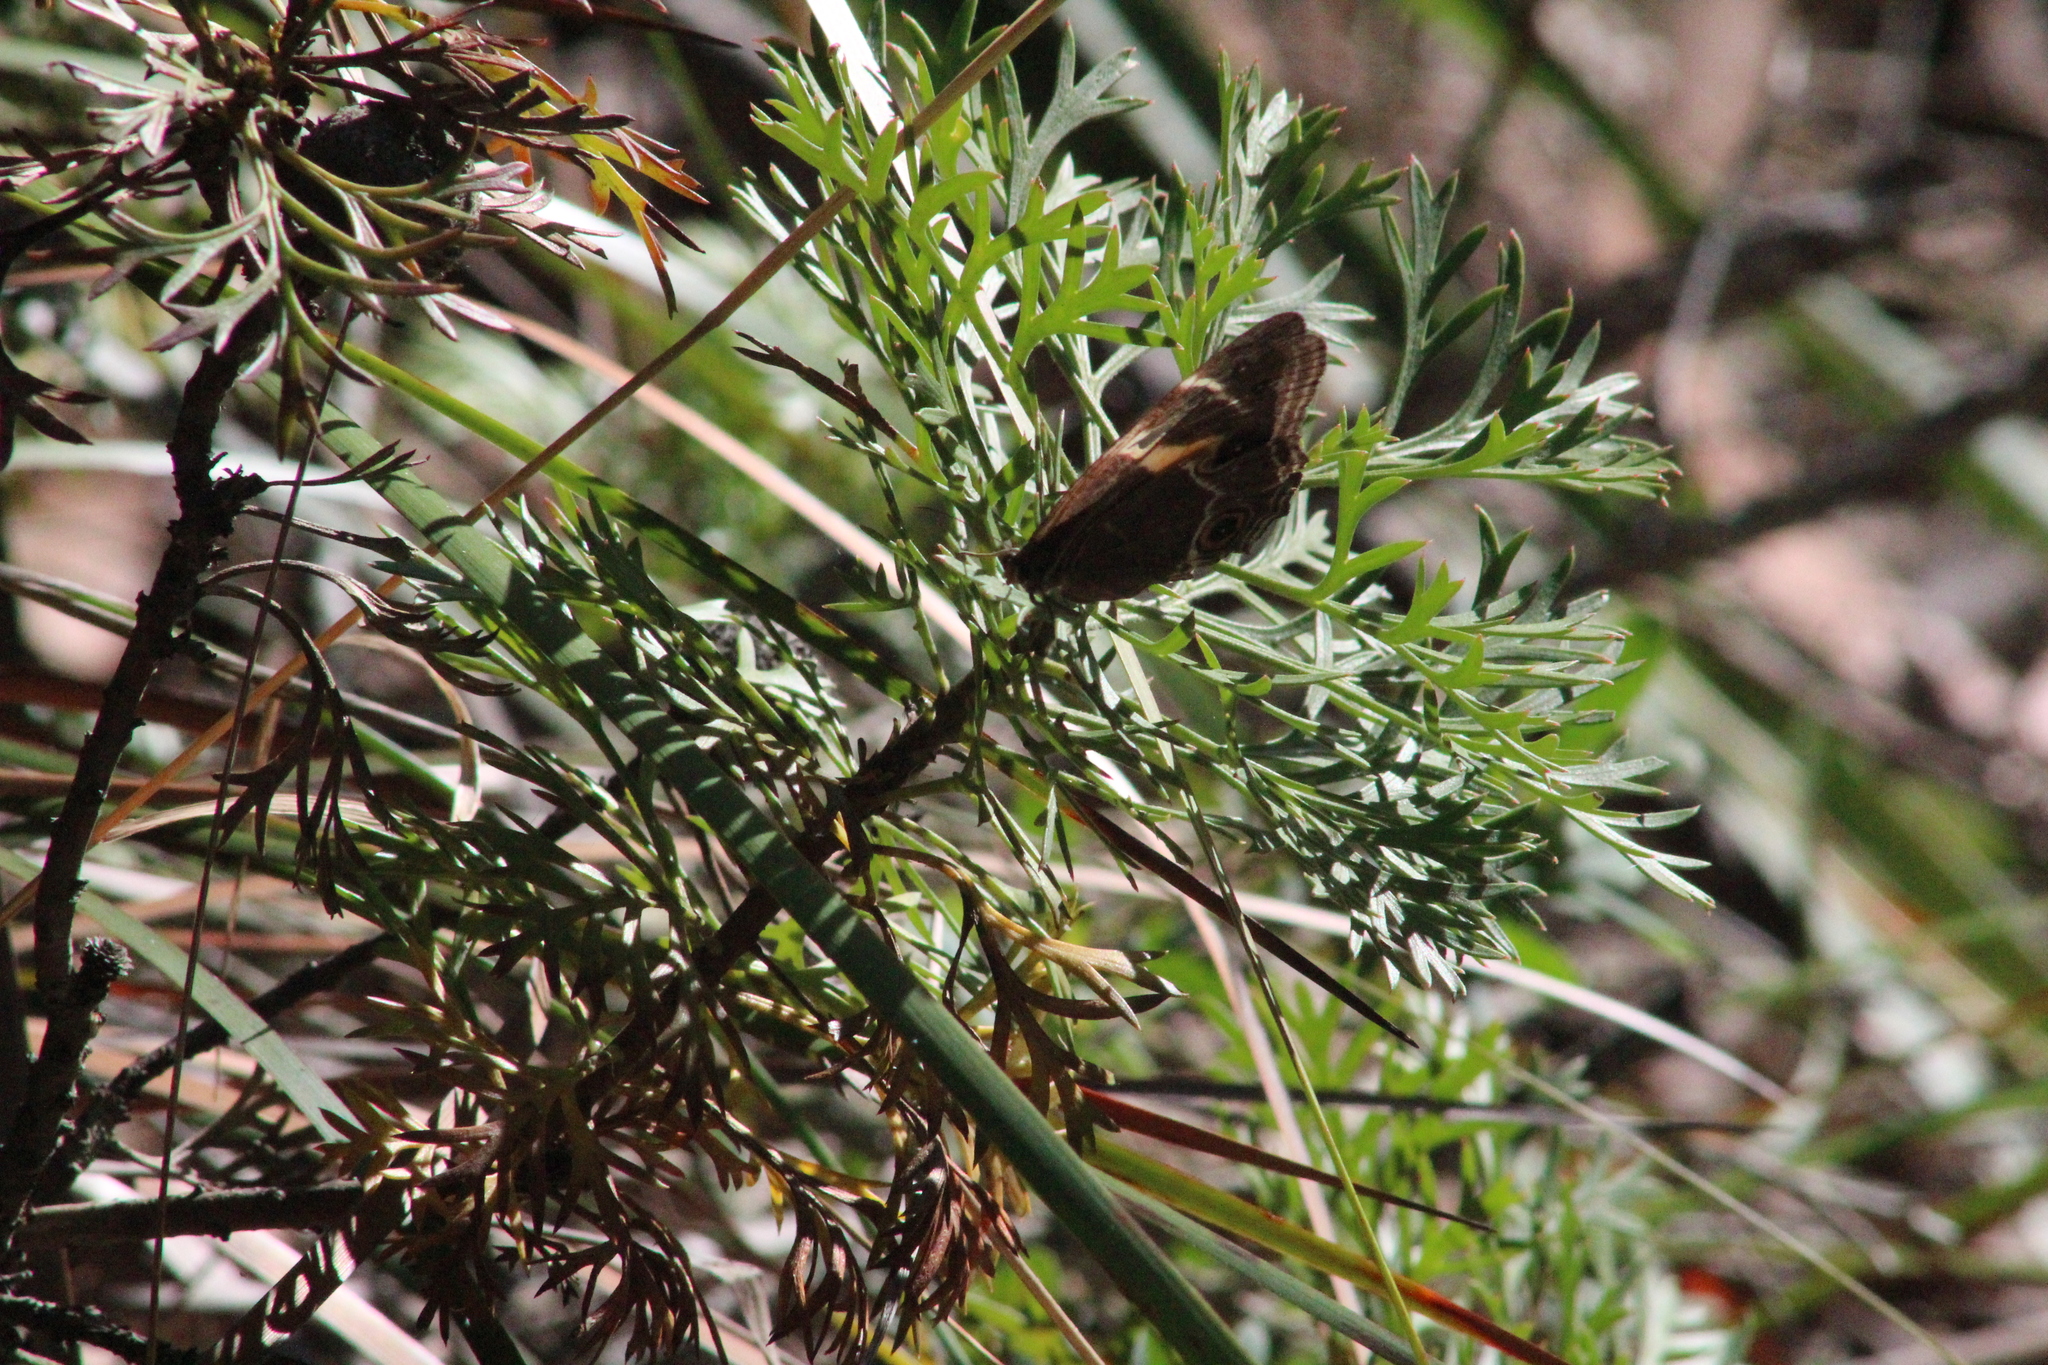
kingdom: Animalia
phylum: Arthropoda
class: Insecta
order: Lepidoptera
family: Nymphalidae
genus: Tisiphone
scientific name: Tisiphone abeona
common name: Swordgrass brown
